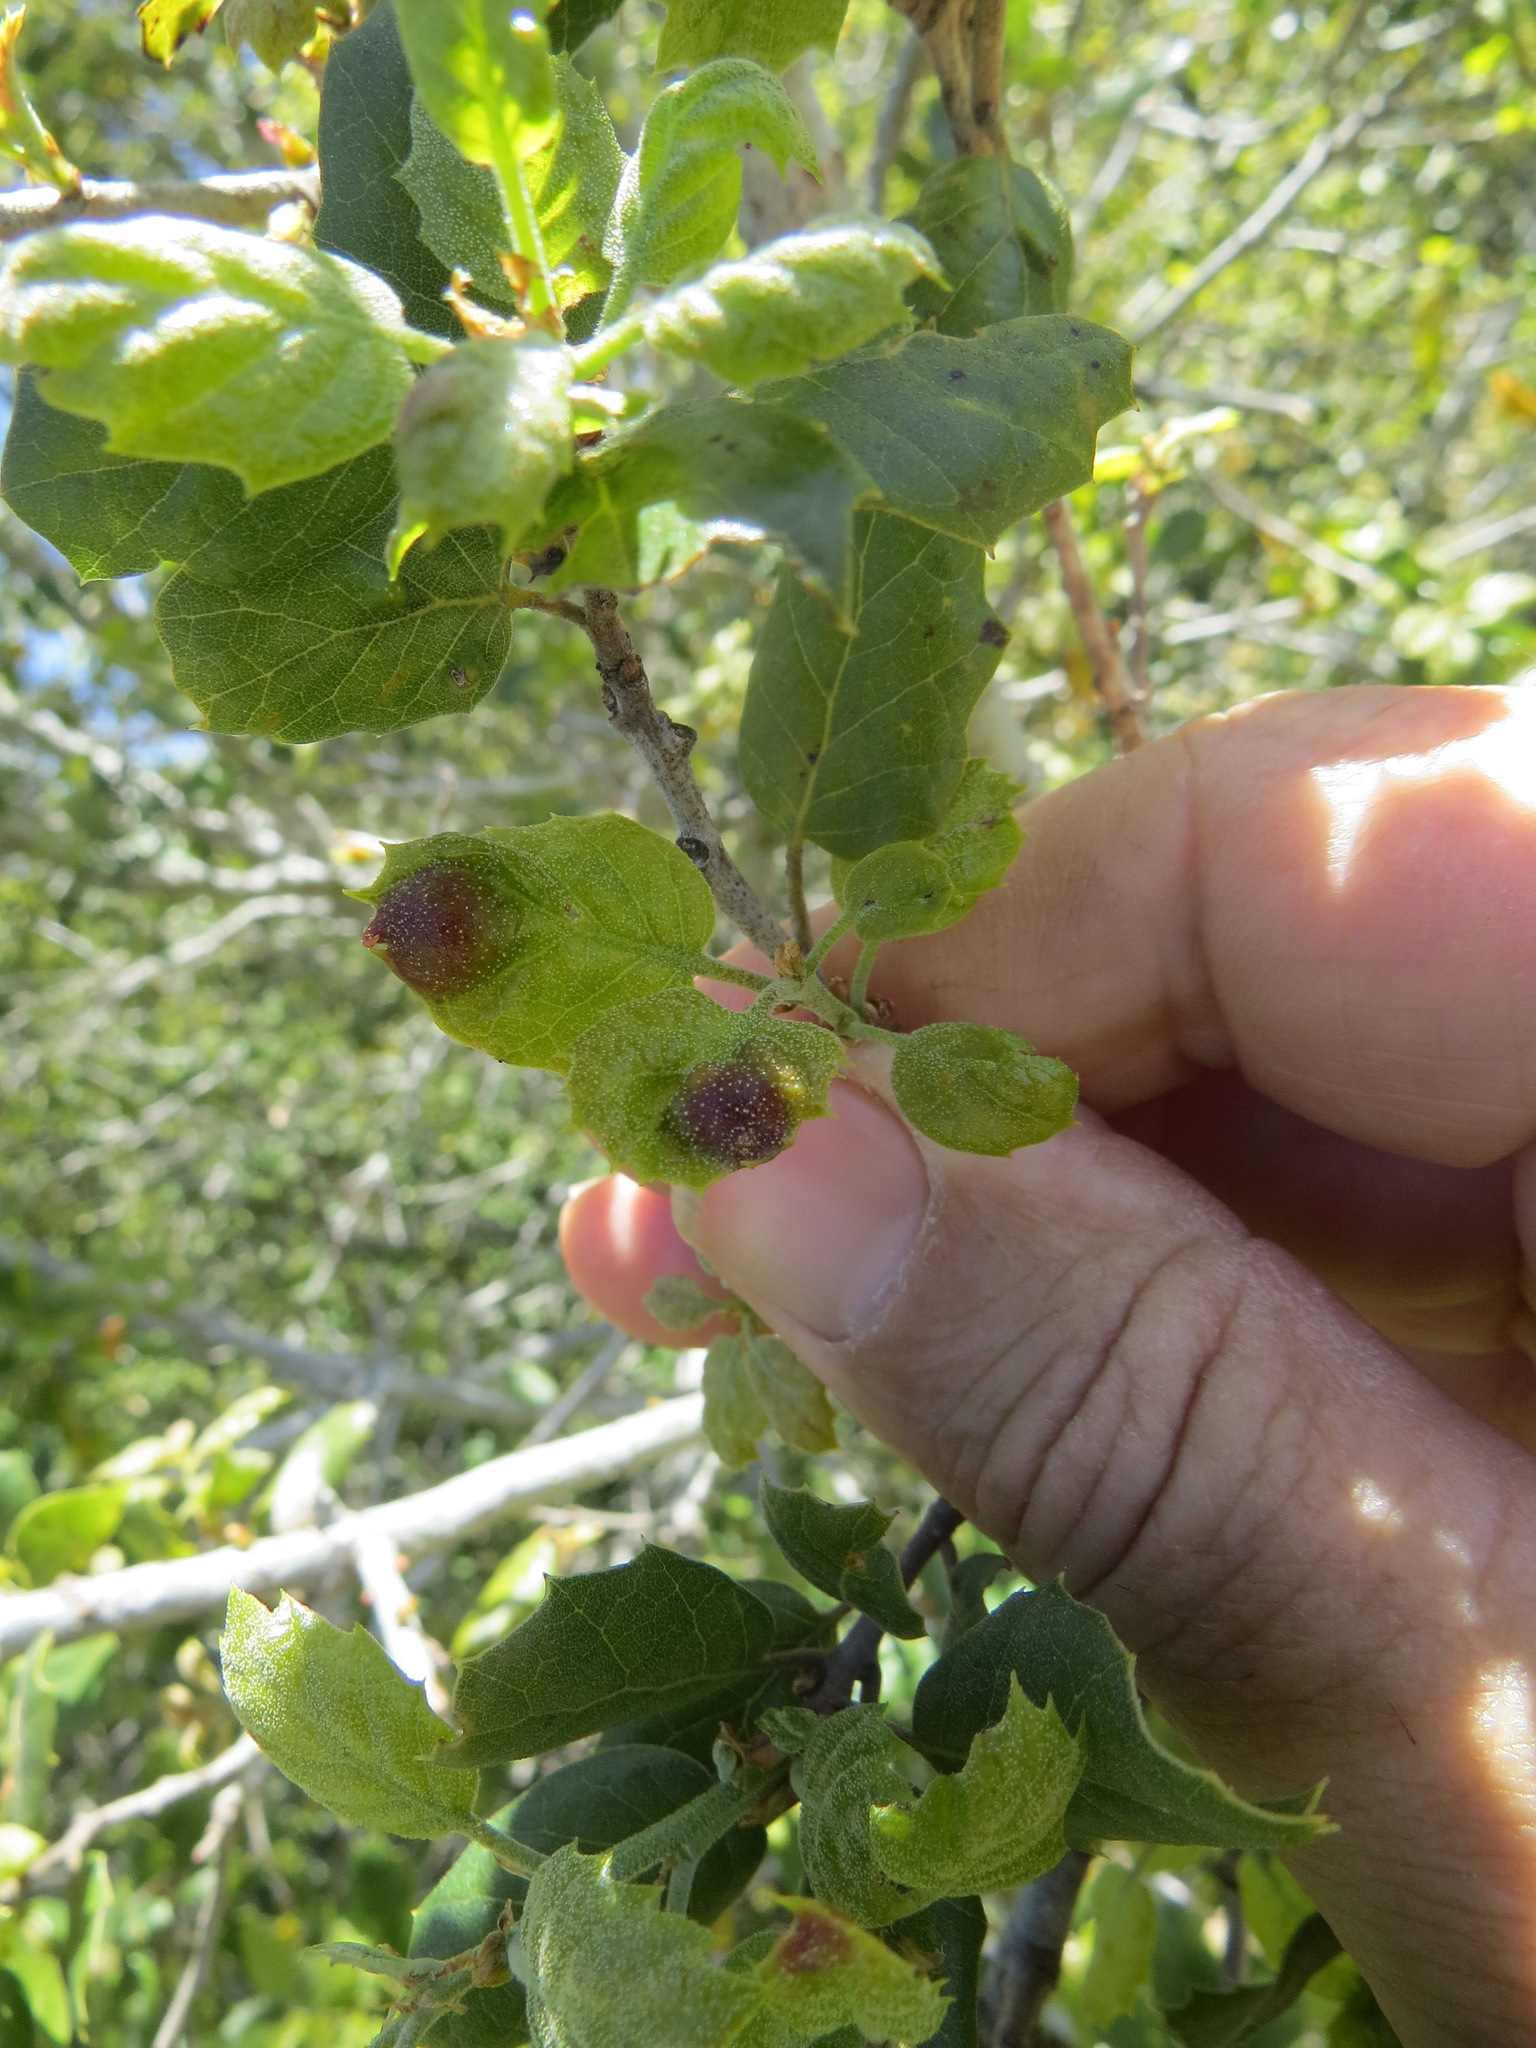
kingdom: Animalia
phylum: Arthropoda
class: Insecta
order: Hymenoptera
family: Cynipidae
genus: Callirhytis
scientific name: Callirhytis
